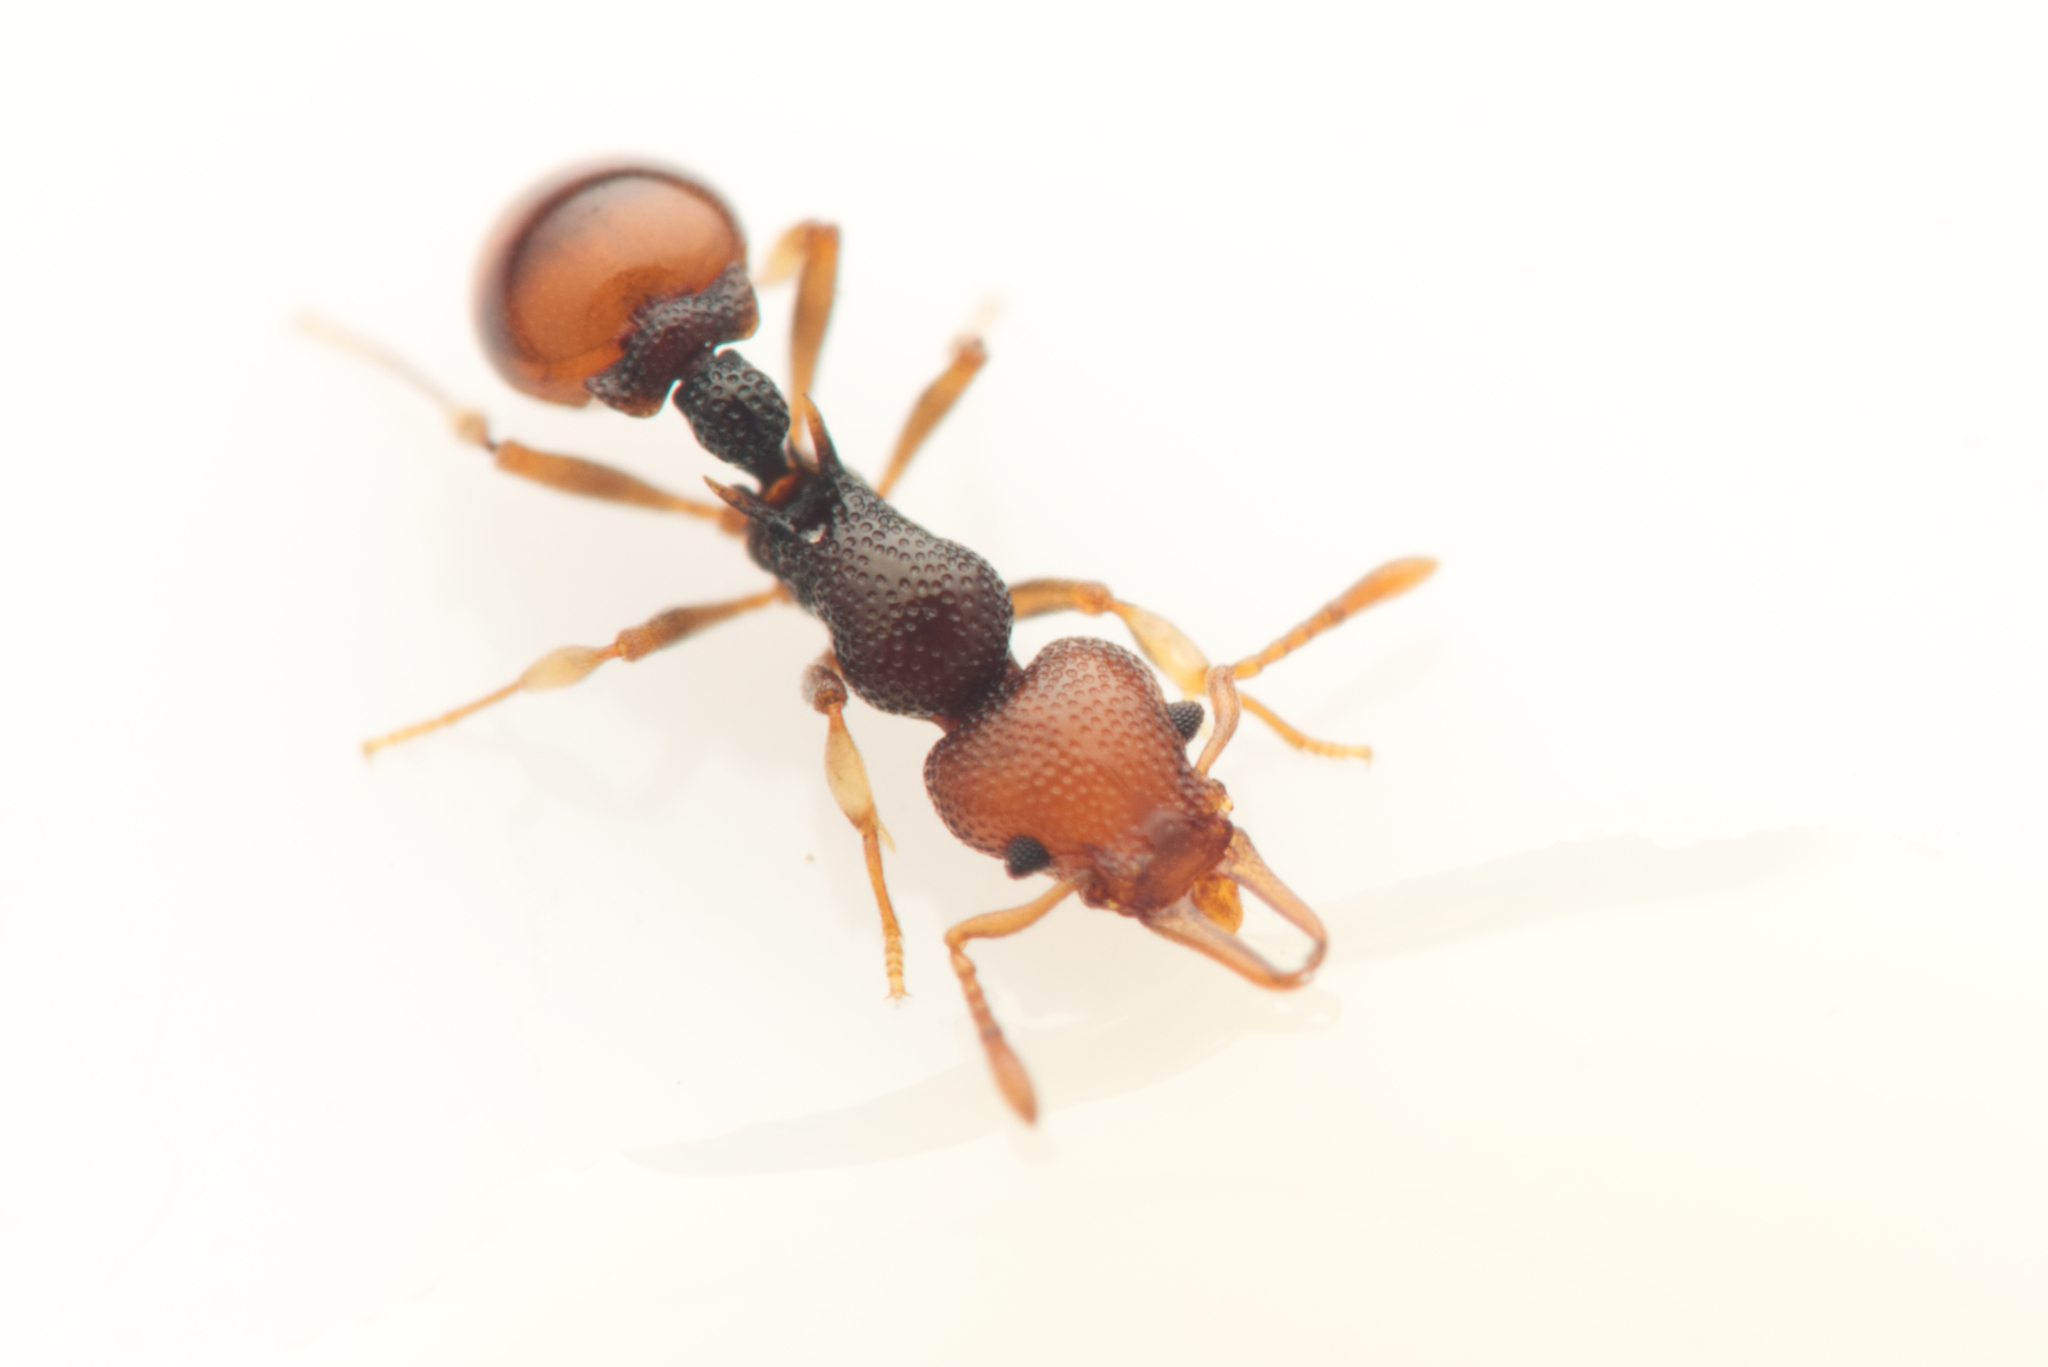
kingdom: Animalia
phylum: Arthropoda
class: Insecta
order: Hymenoptera
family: Formicidae
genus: Epopostruma
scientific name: Epopostruma
